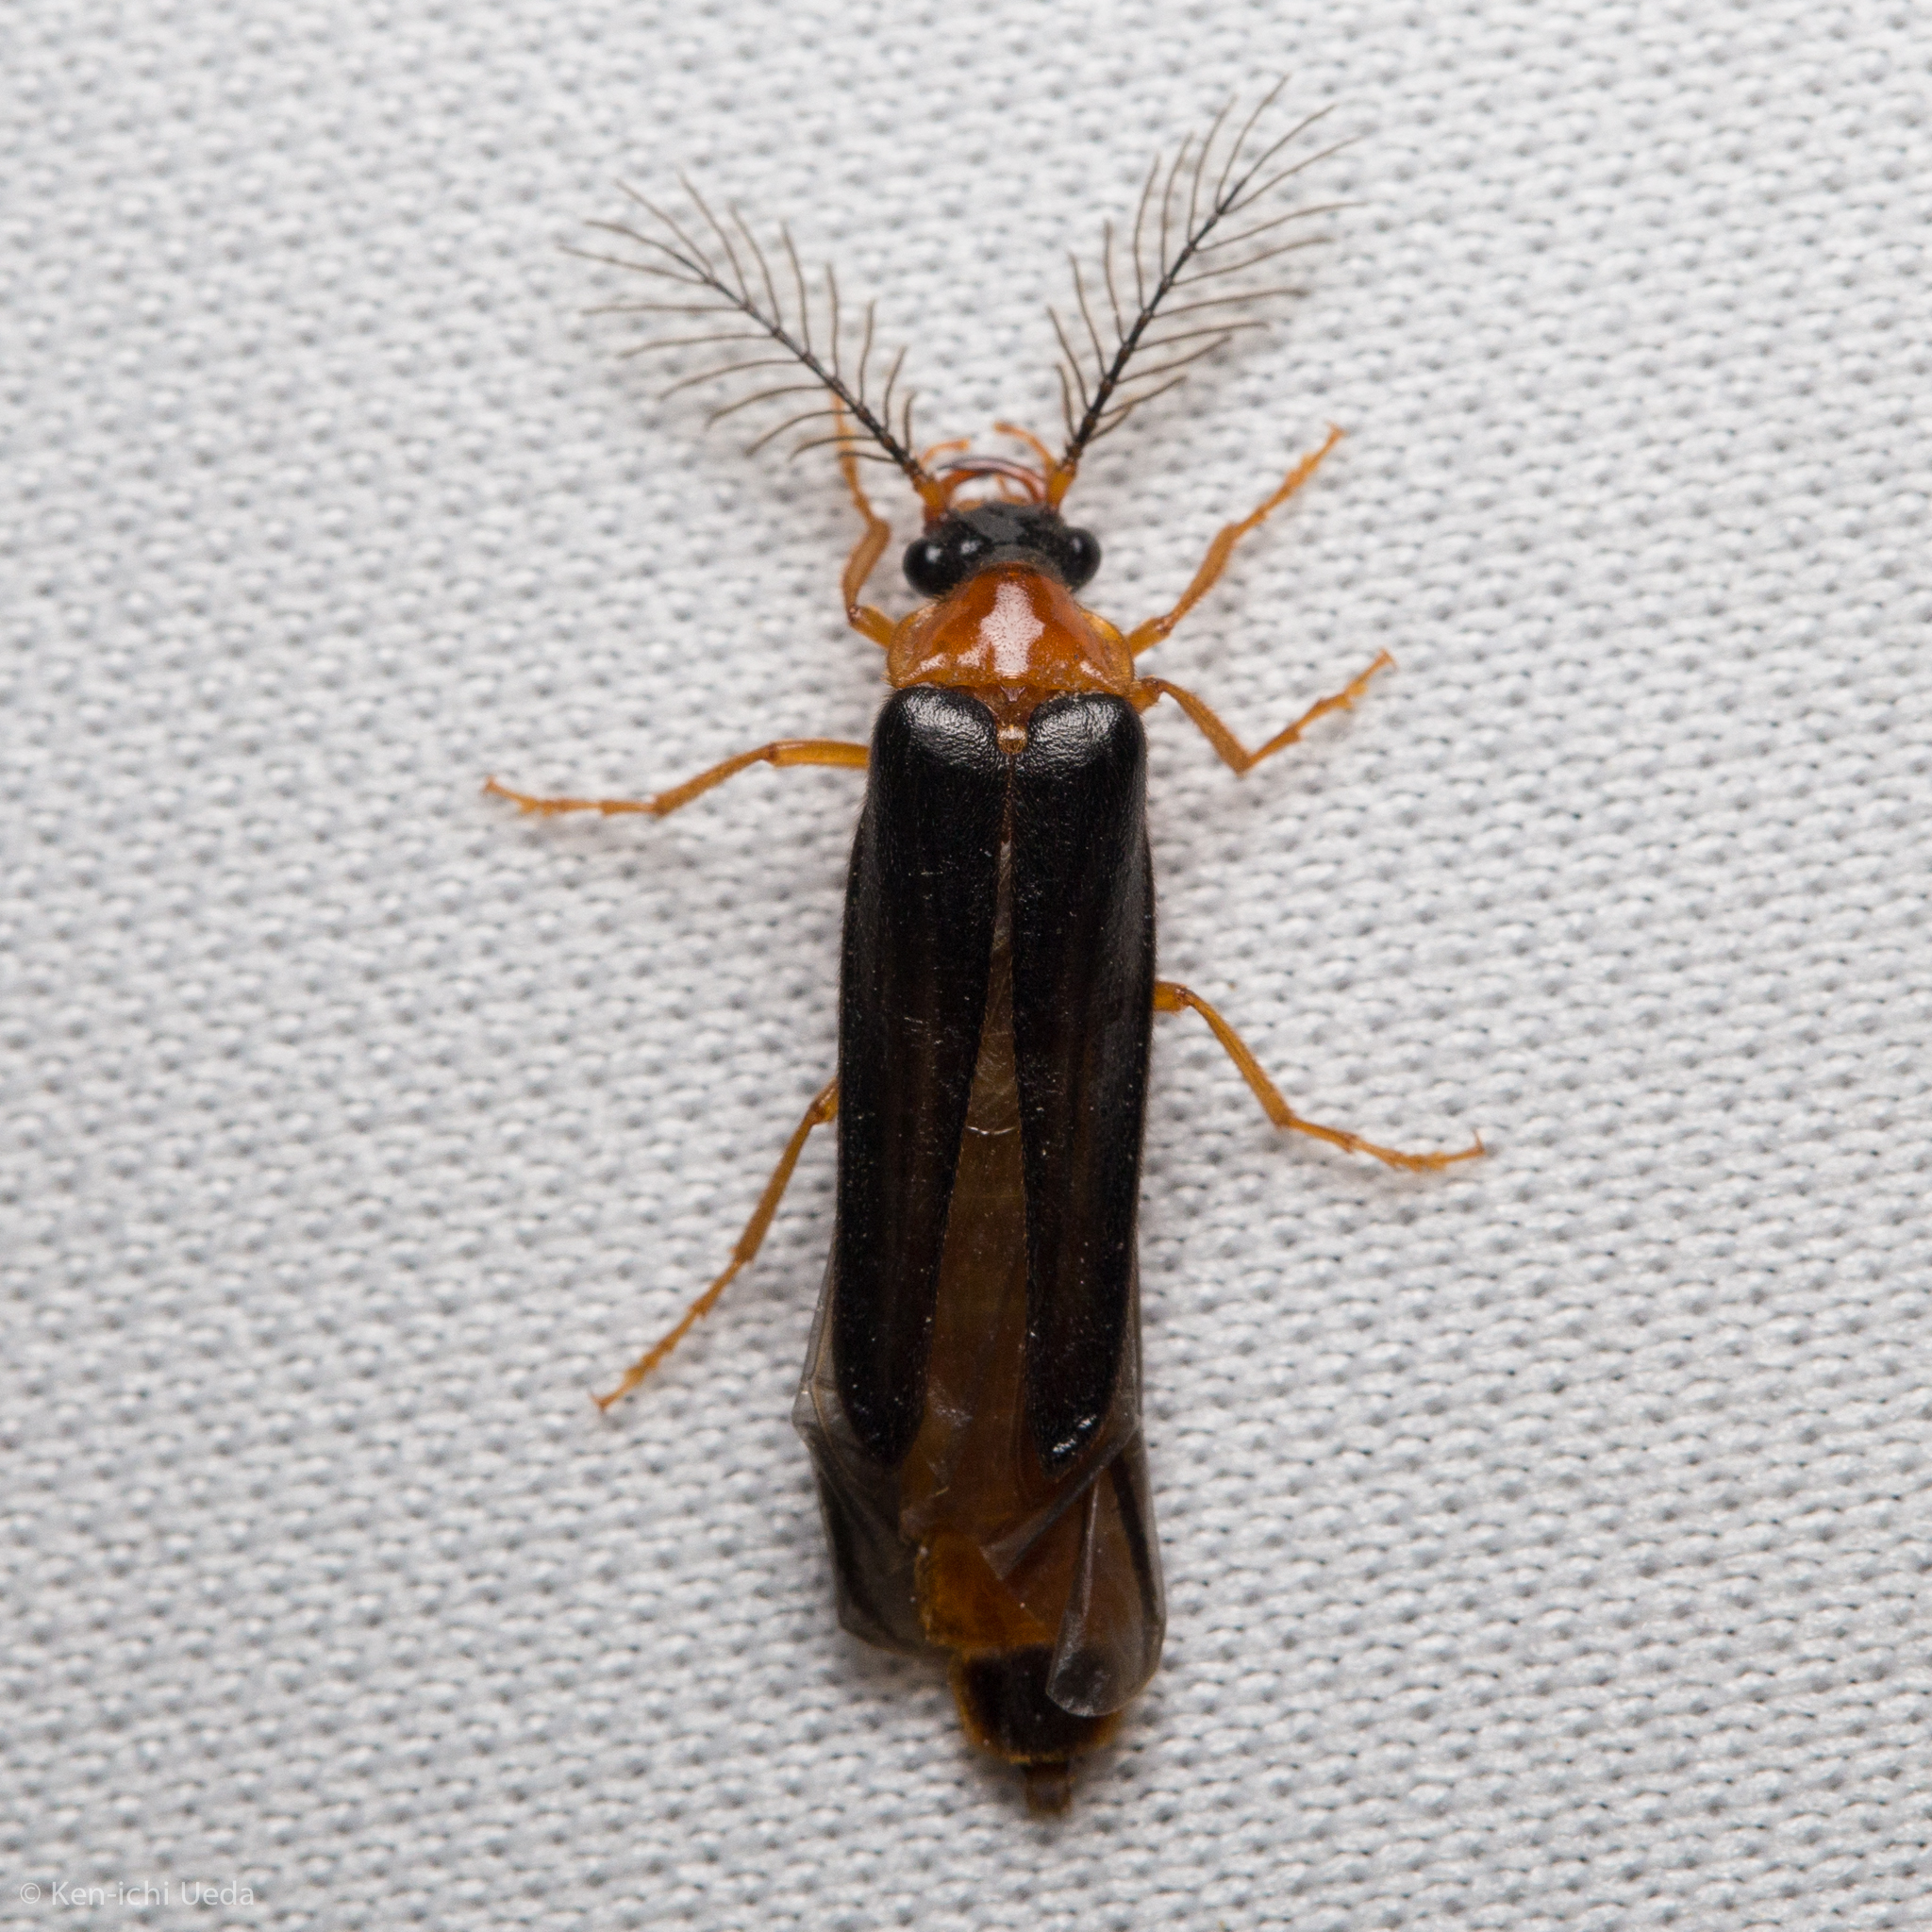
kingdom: Animalia
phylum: Arthropoda
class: Insecta
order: Coleoptera
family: Phengodidae
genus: Zarhipis
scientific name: Zarhipis truncaticeps
